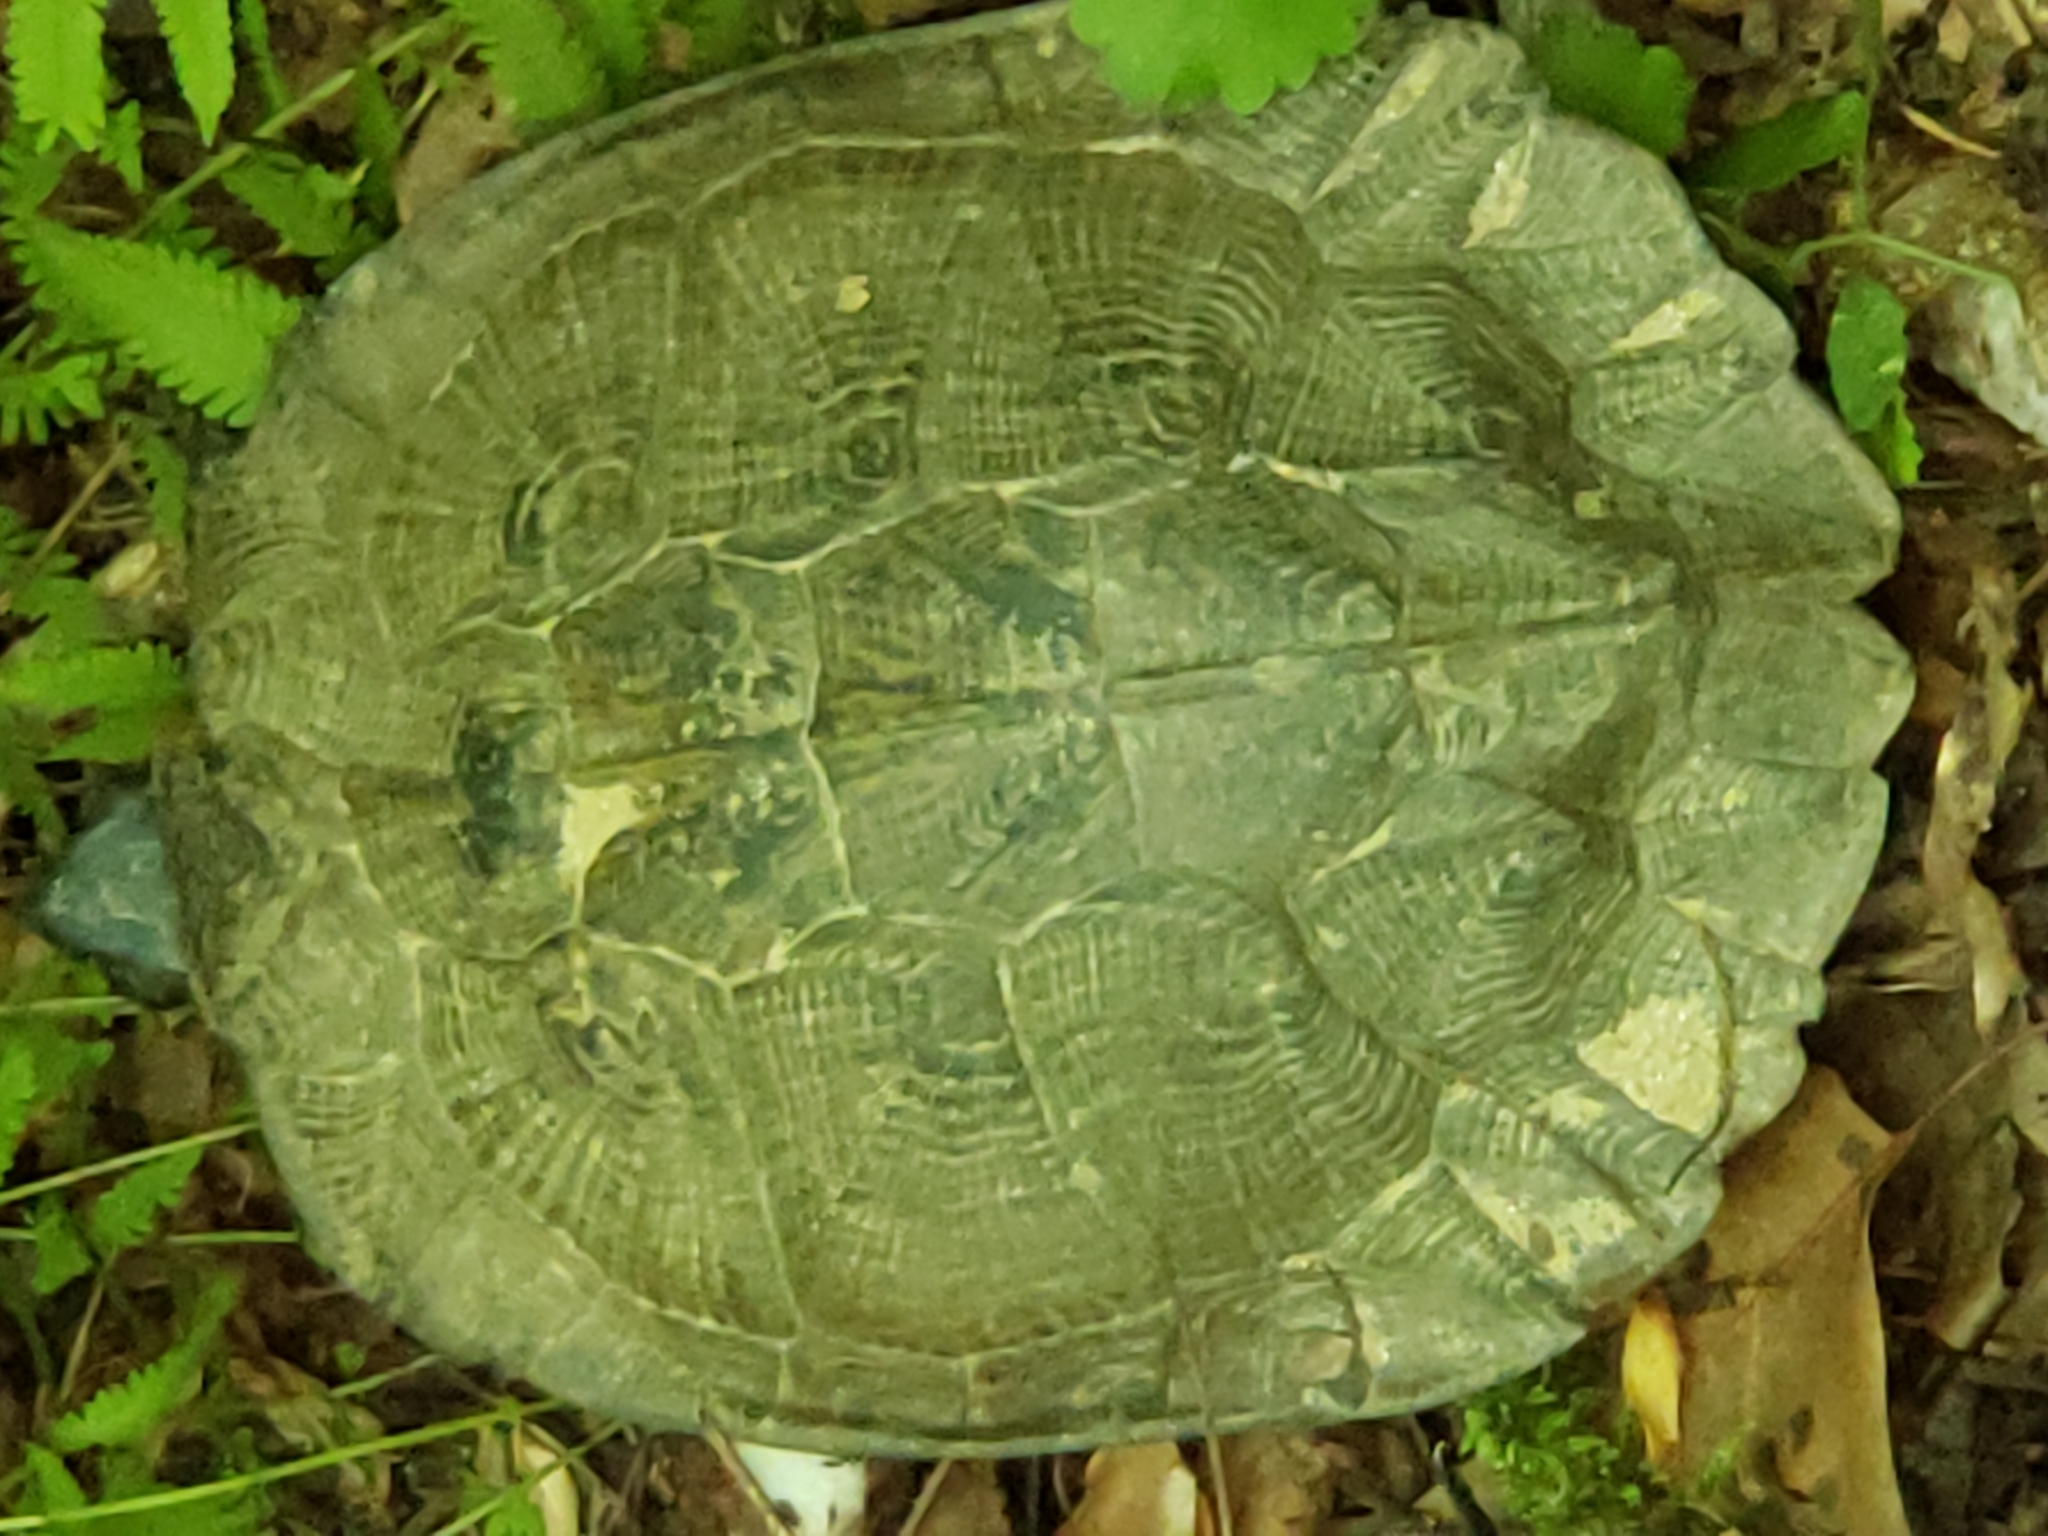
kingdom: Animalia
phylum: Chordata
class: Testudines
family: Emydidae
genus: Glyptemys
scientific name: Glyptemys insculpta
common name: Wood turtle
